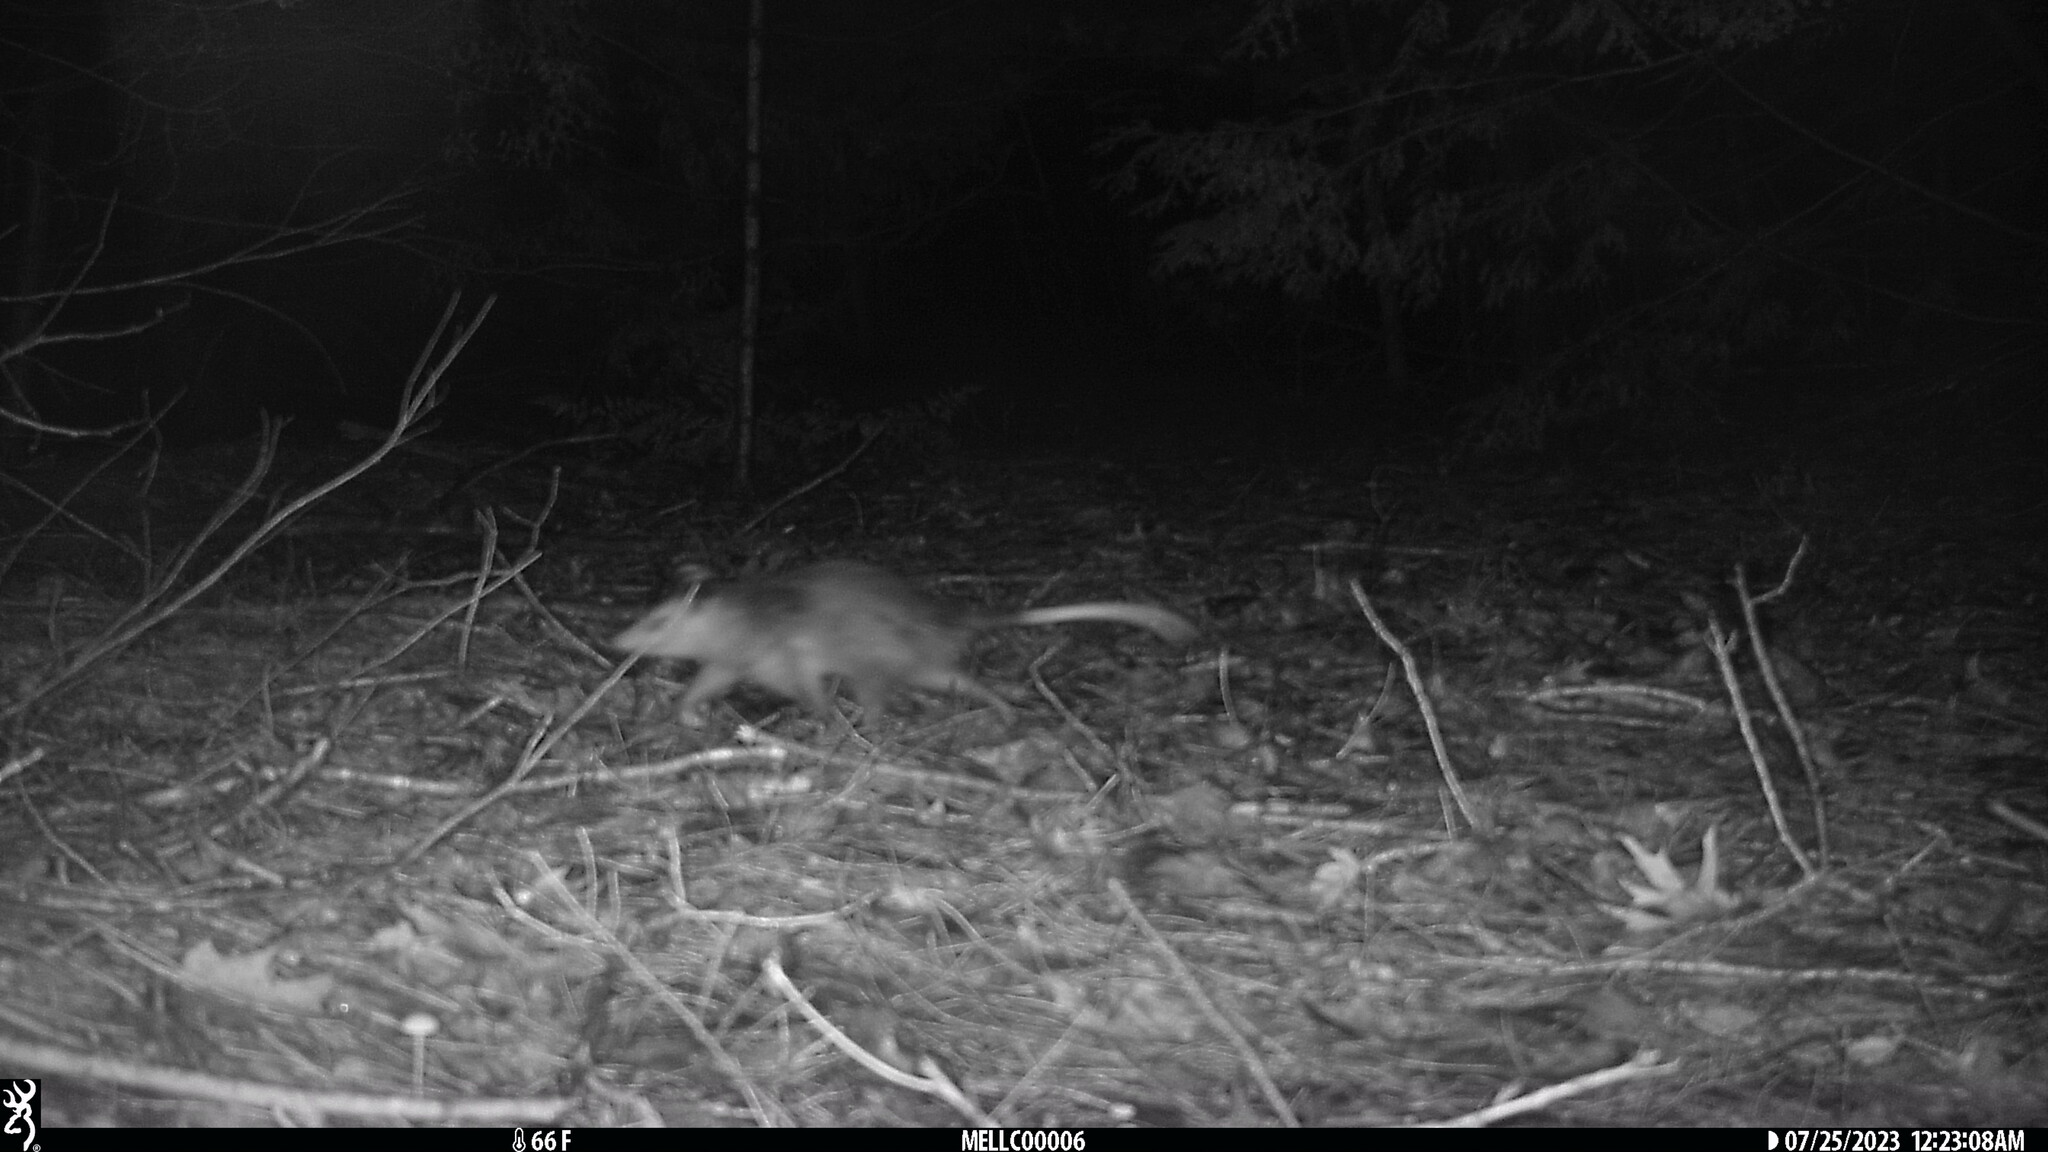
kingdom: Animalia
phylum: Chordata
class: Mammalia
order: Didelphimorphia
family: Didelphidae
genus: Didelphis
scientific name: Didelphis virginiana
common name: Virginia opossum
